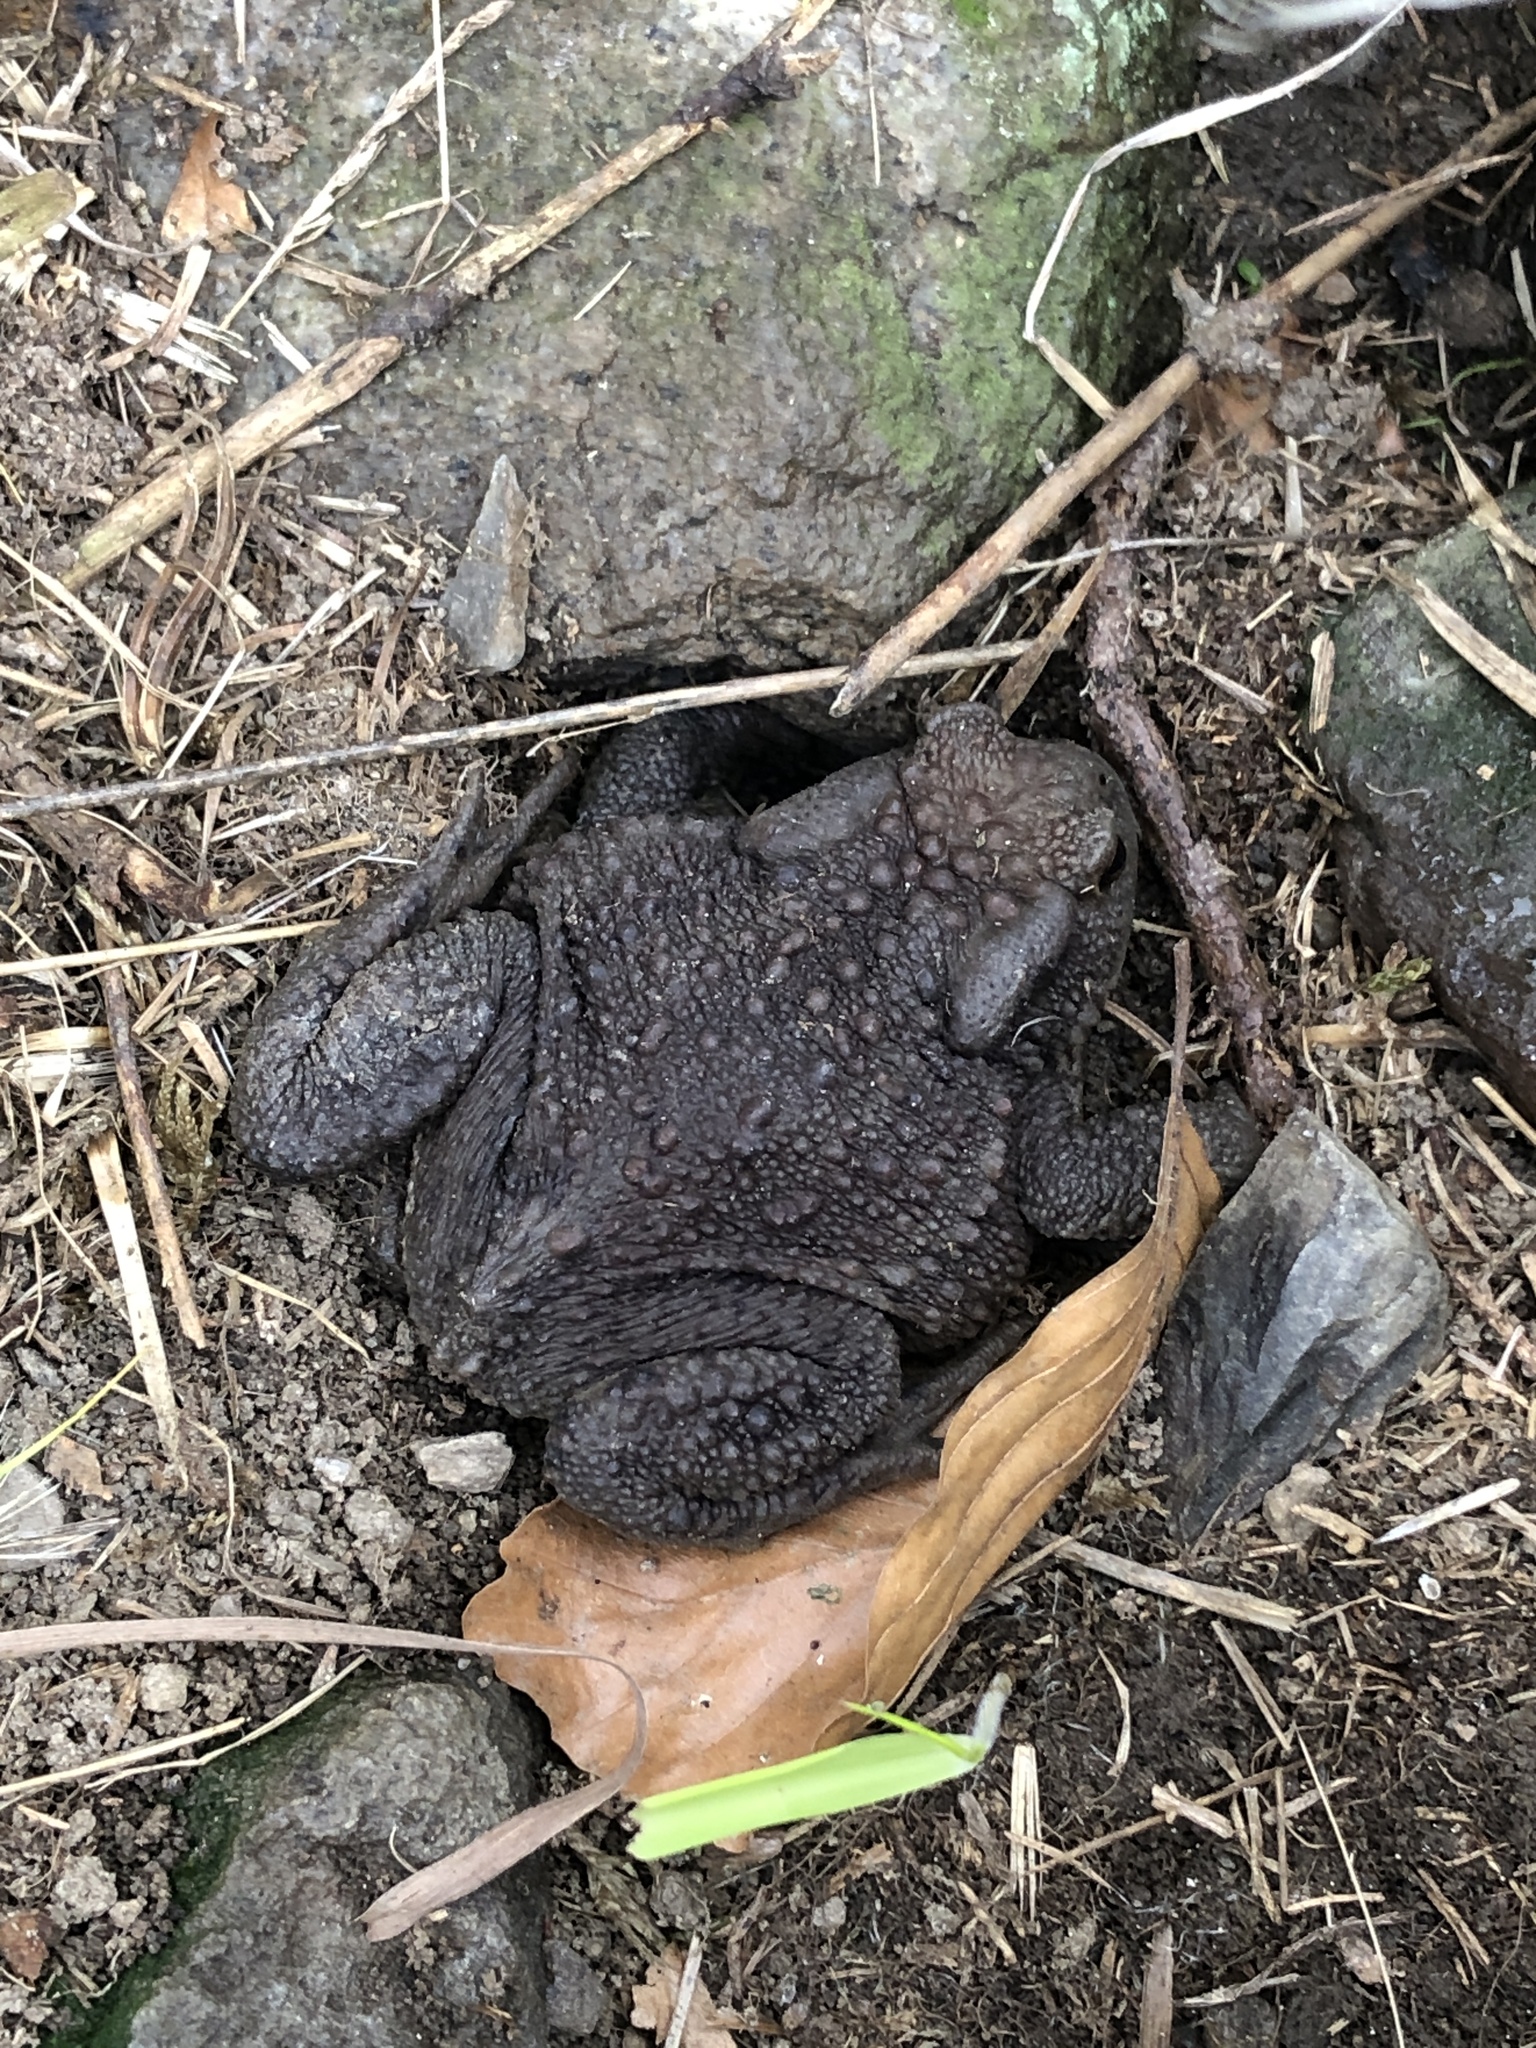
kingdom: Animalia
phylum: Chordata
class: Amphibia
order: Anura
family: Bufonidae
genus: Bufo
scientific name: Bufo bufo
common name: Common toad
